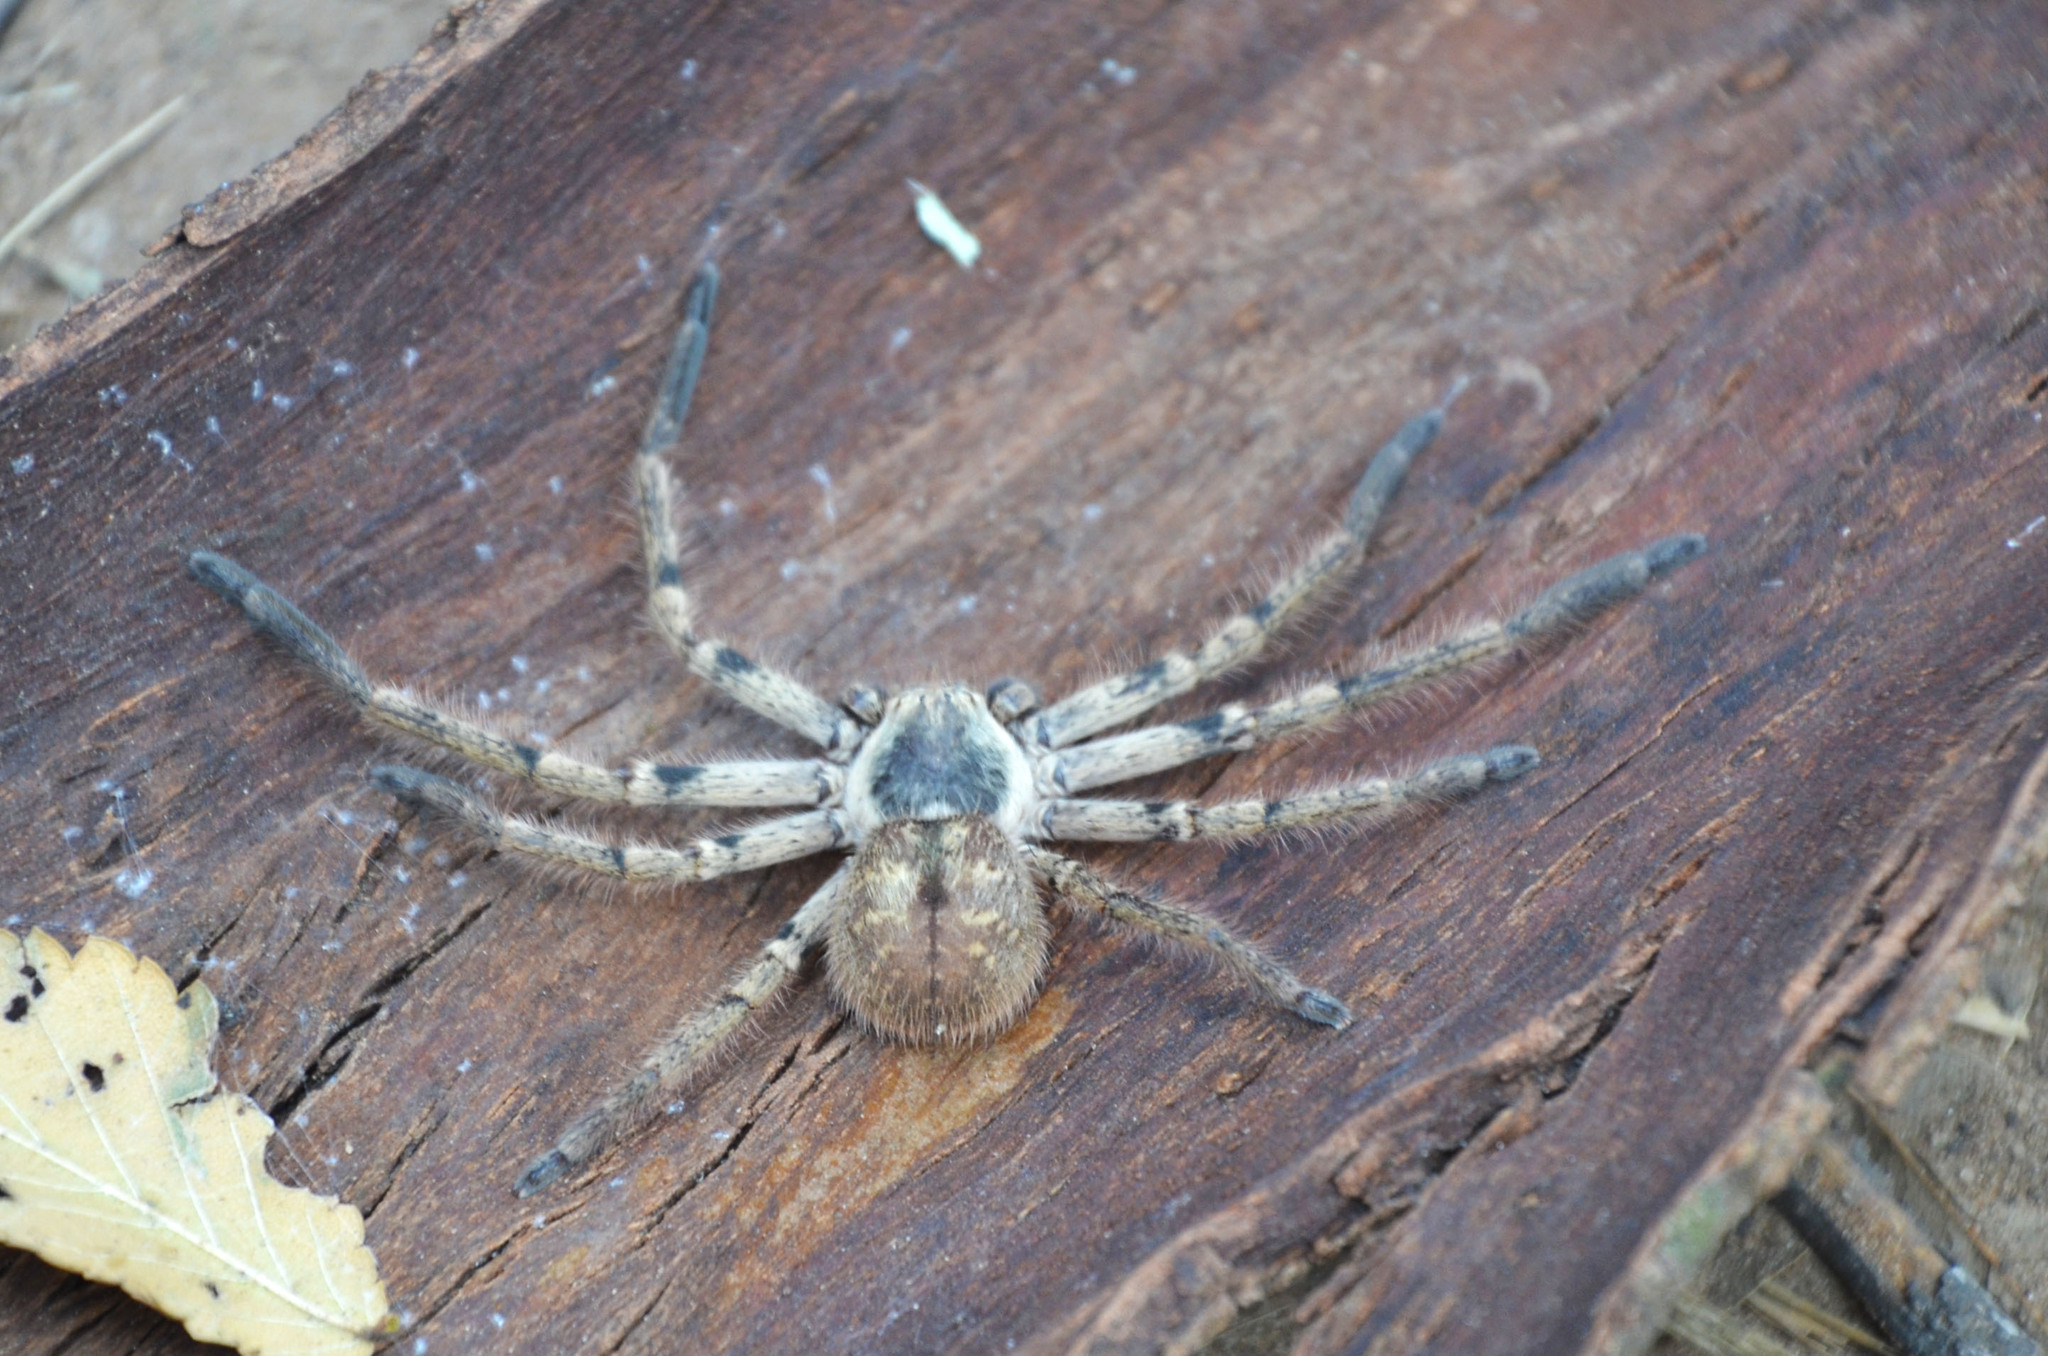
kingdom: Animalia
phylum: Arthropoda
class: Arachnida
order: Araneae
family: Sparassidae
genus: Polybetes
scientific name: Polybetes pythagoricus
